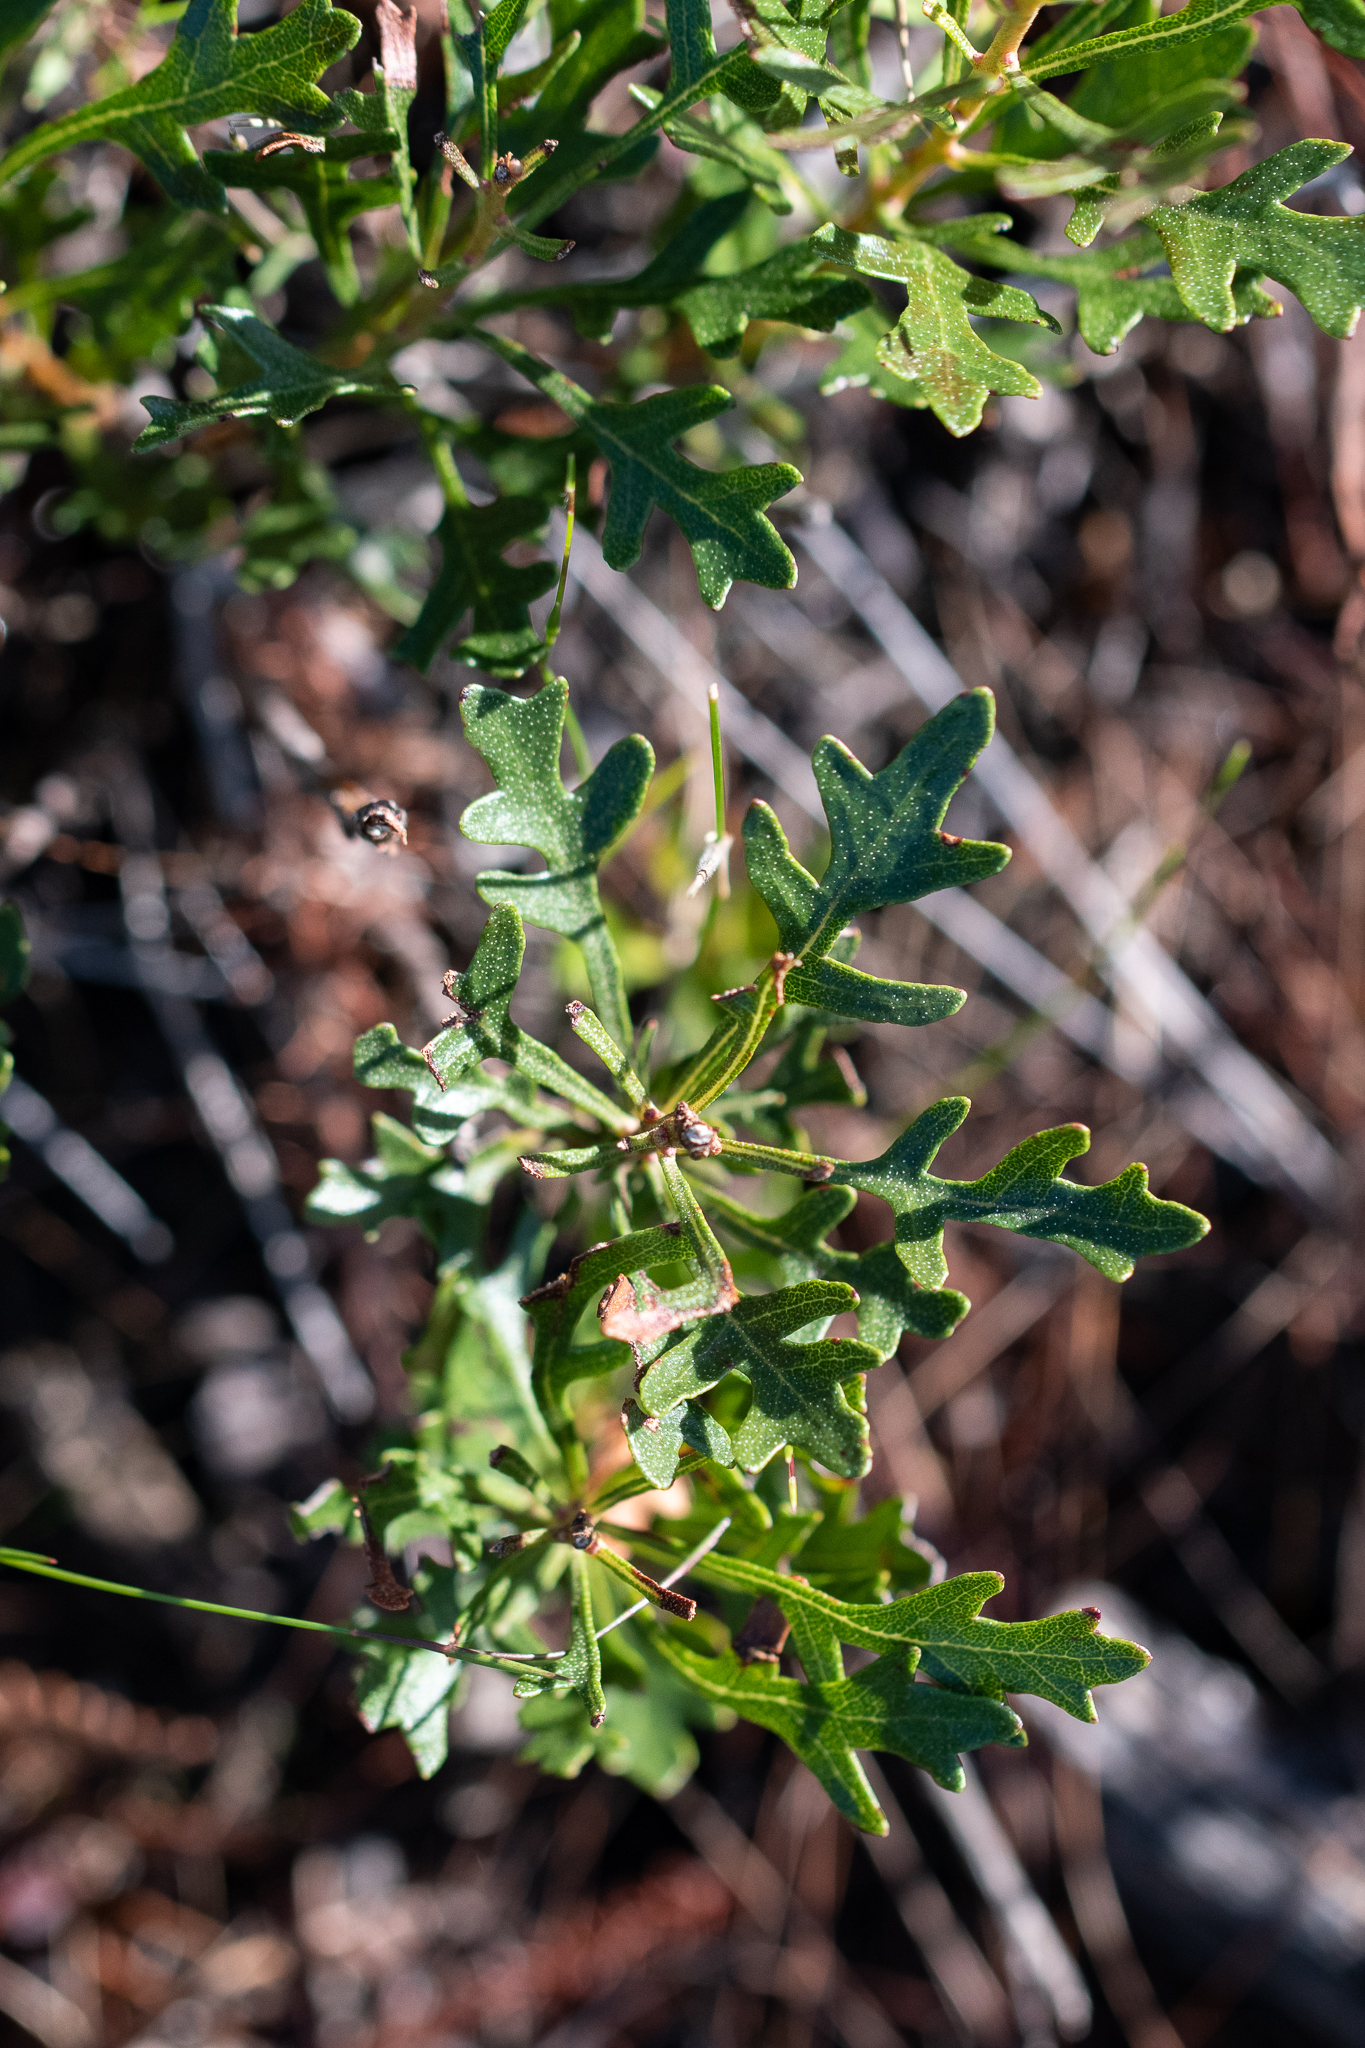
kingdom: Plantae
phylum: Tracheophyta
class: Magnoliopsida
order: Fagales
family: Myricaceae
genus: Morella
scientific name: Morella quercifolia
